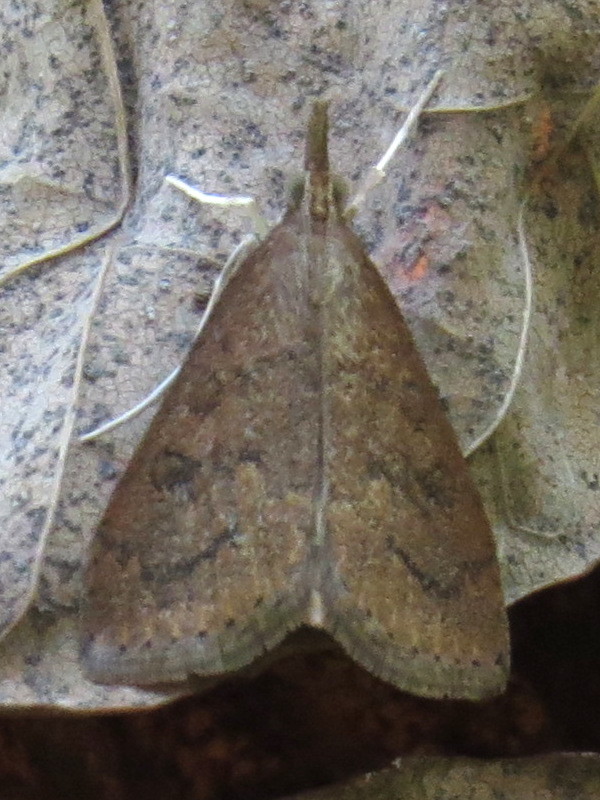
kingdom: Animalia
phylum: Arthropoda
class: Insecta
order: Lepidoptera
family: Crambidae
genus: Udea
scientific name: Udea rubigalis
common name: Celery leaftier moth
